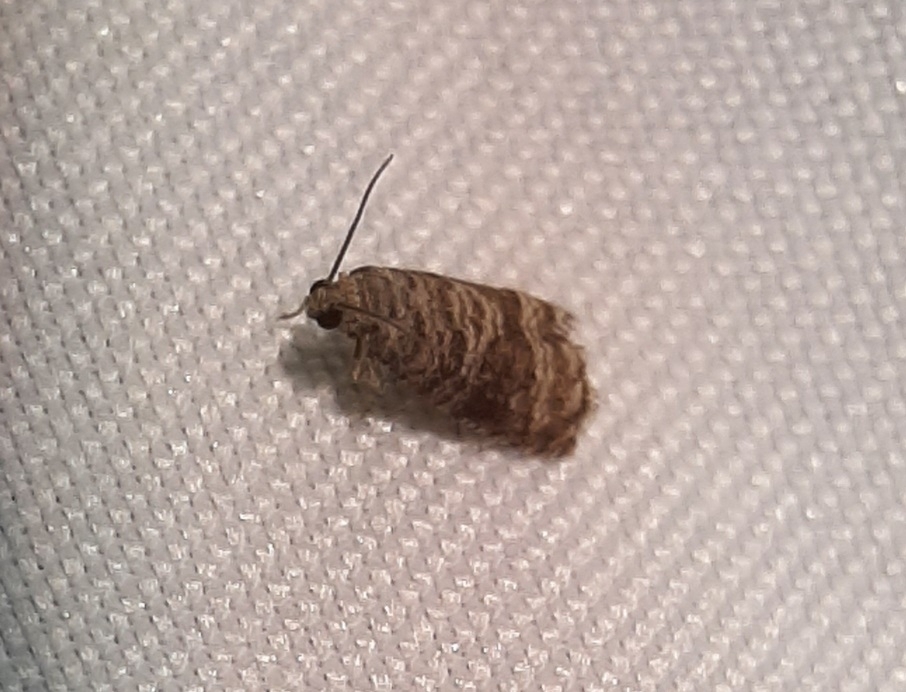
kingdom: Animalia
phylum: Arthropoda
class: Insecta
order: Lepidoptera
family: Noctuidae
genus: Aspila
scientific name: Aspila
